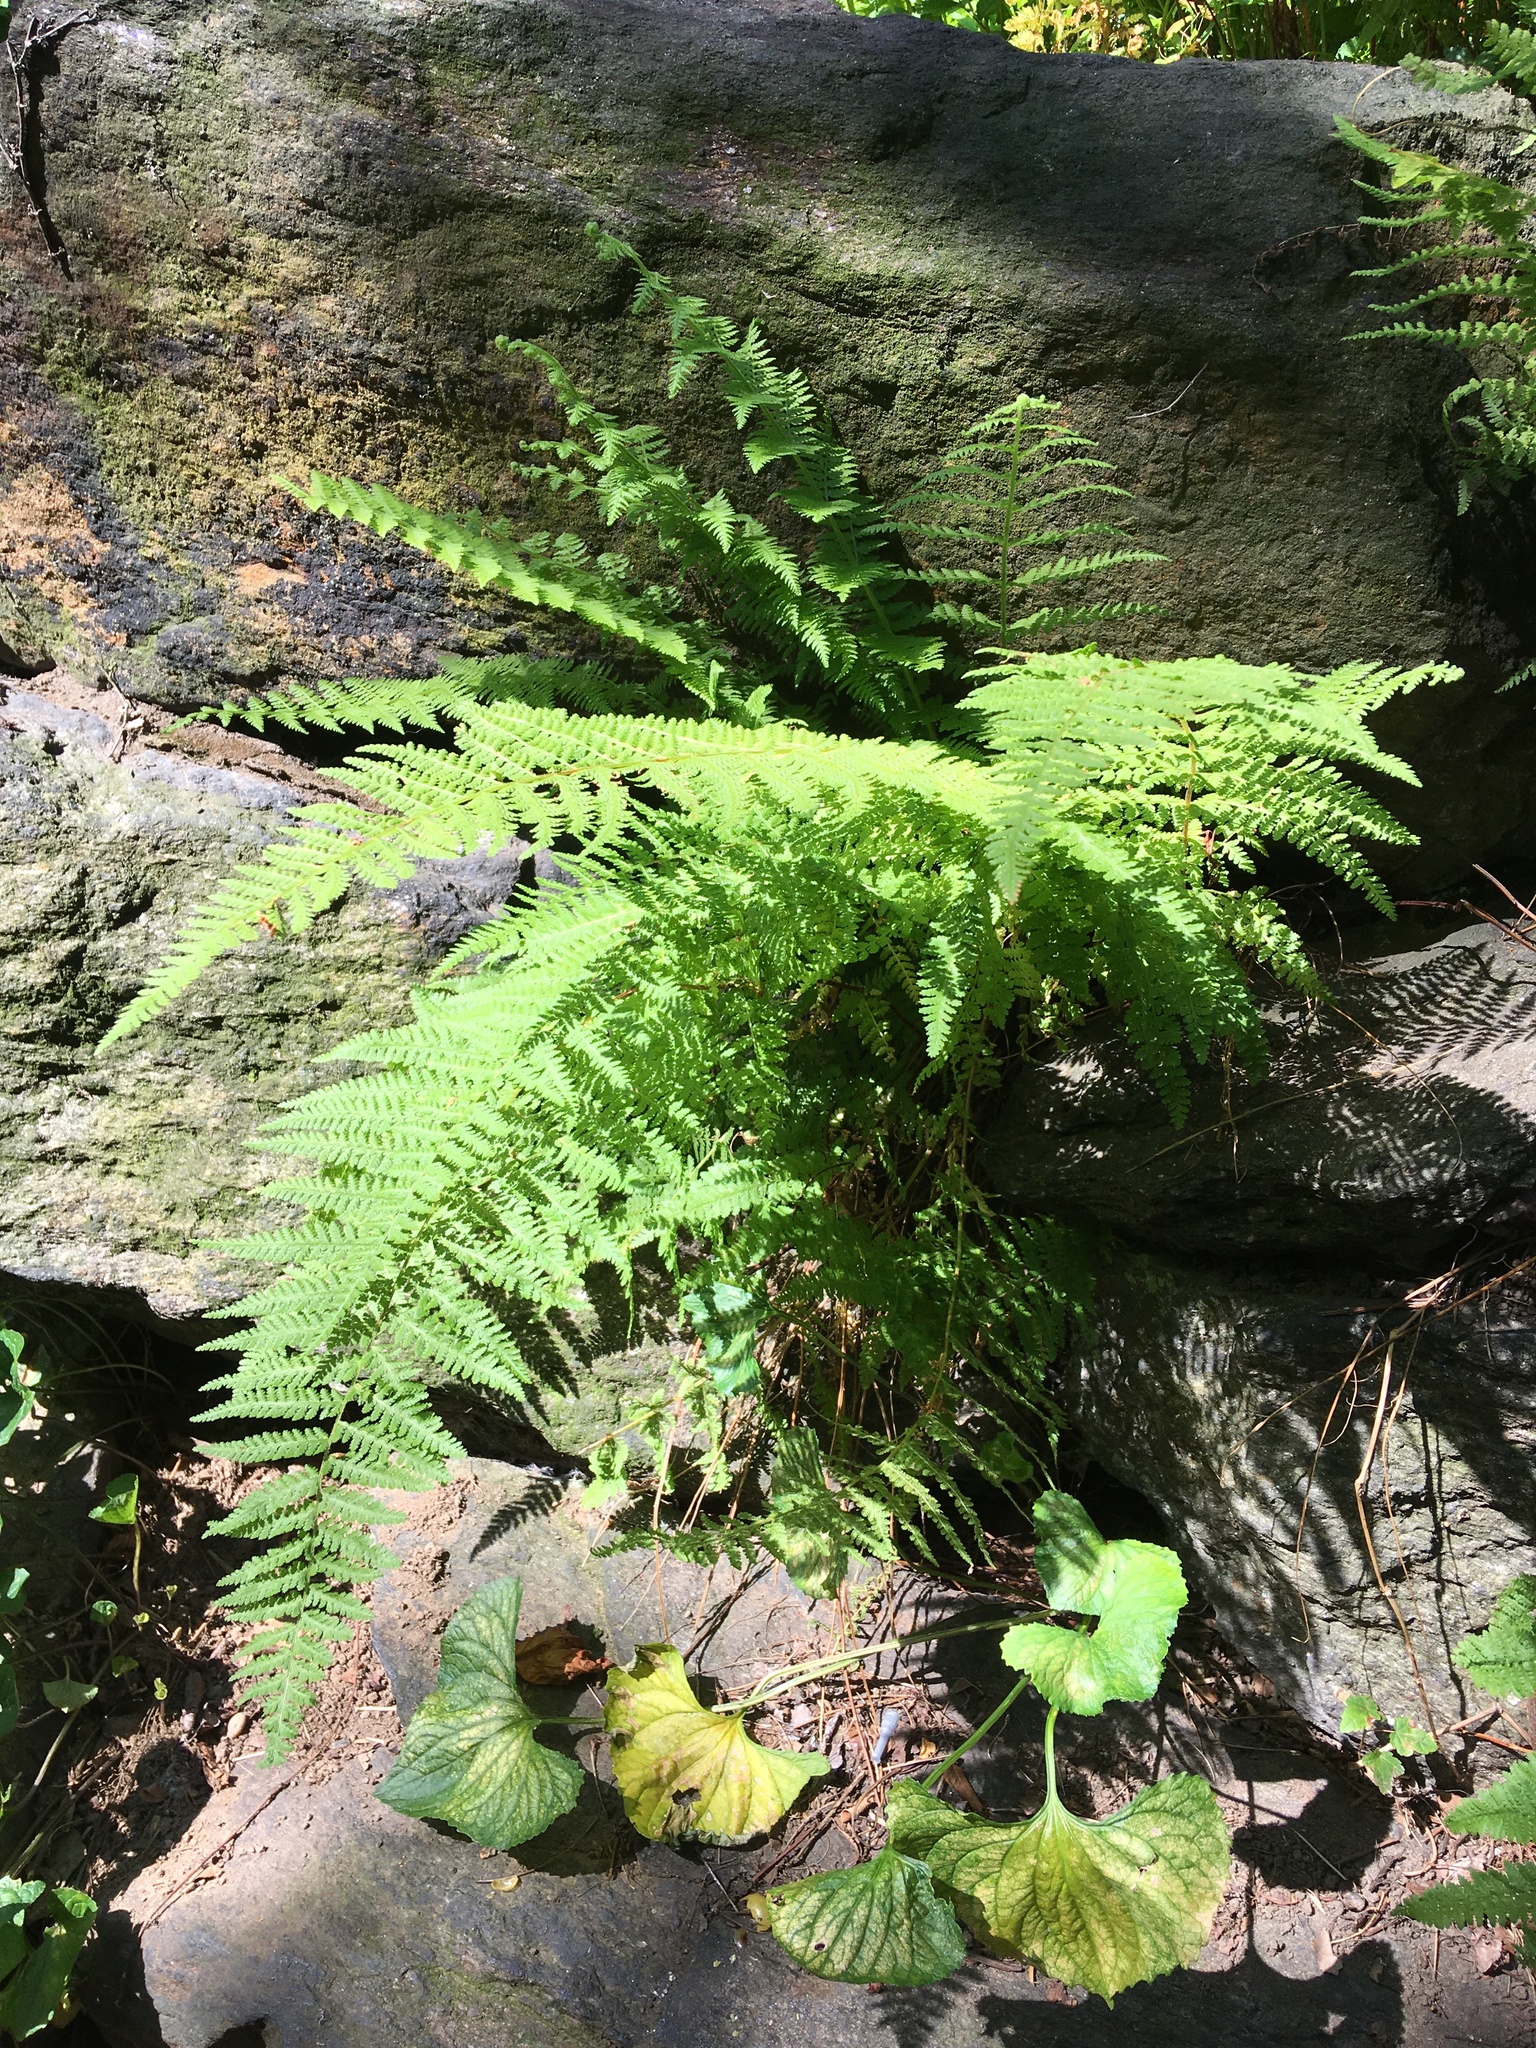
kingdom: Plantae
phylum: Tracheophyta
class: Polypodiopsida
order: Polypodiales
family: Dennstaedtiaceae
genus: Sitobolium
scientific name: Sitobolium punctilobum
